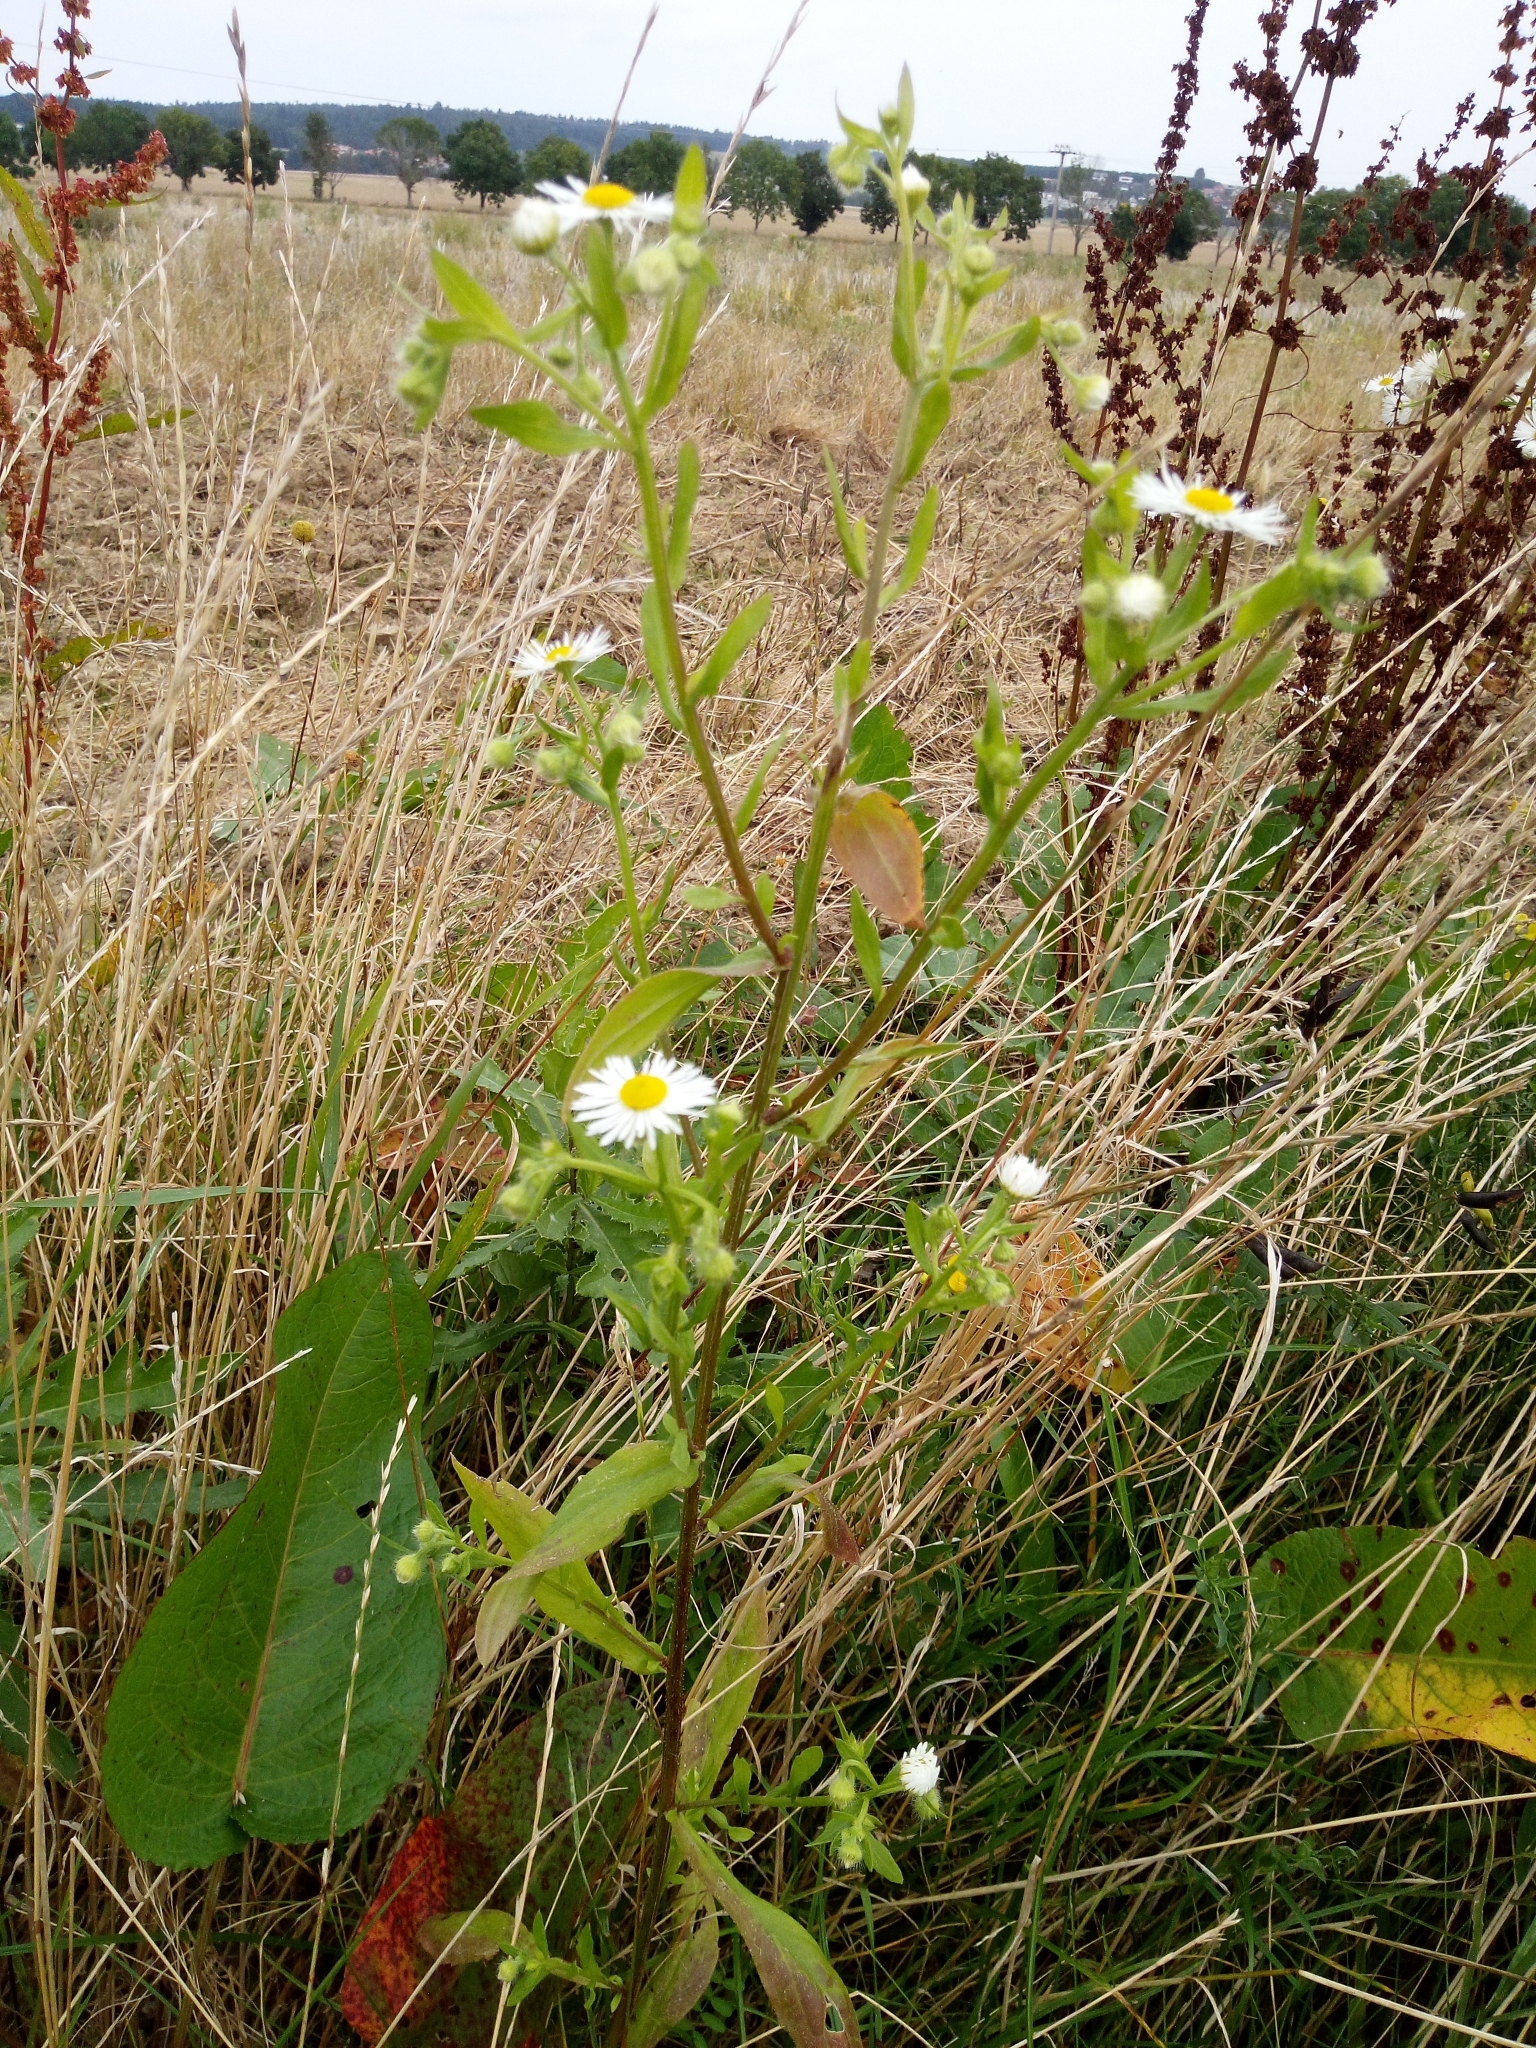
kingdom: Plantae
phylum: Tracheophyta
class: Magnoliopsida
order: Asterales
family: Asteraceae
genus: Erigeron
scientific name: Erigeron annuus
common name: Tall fleabane
